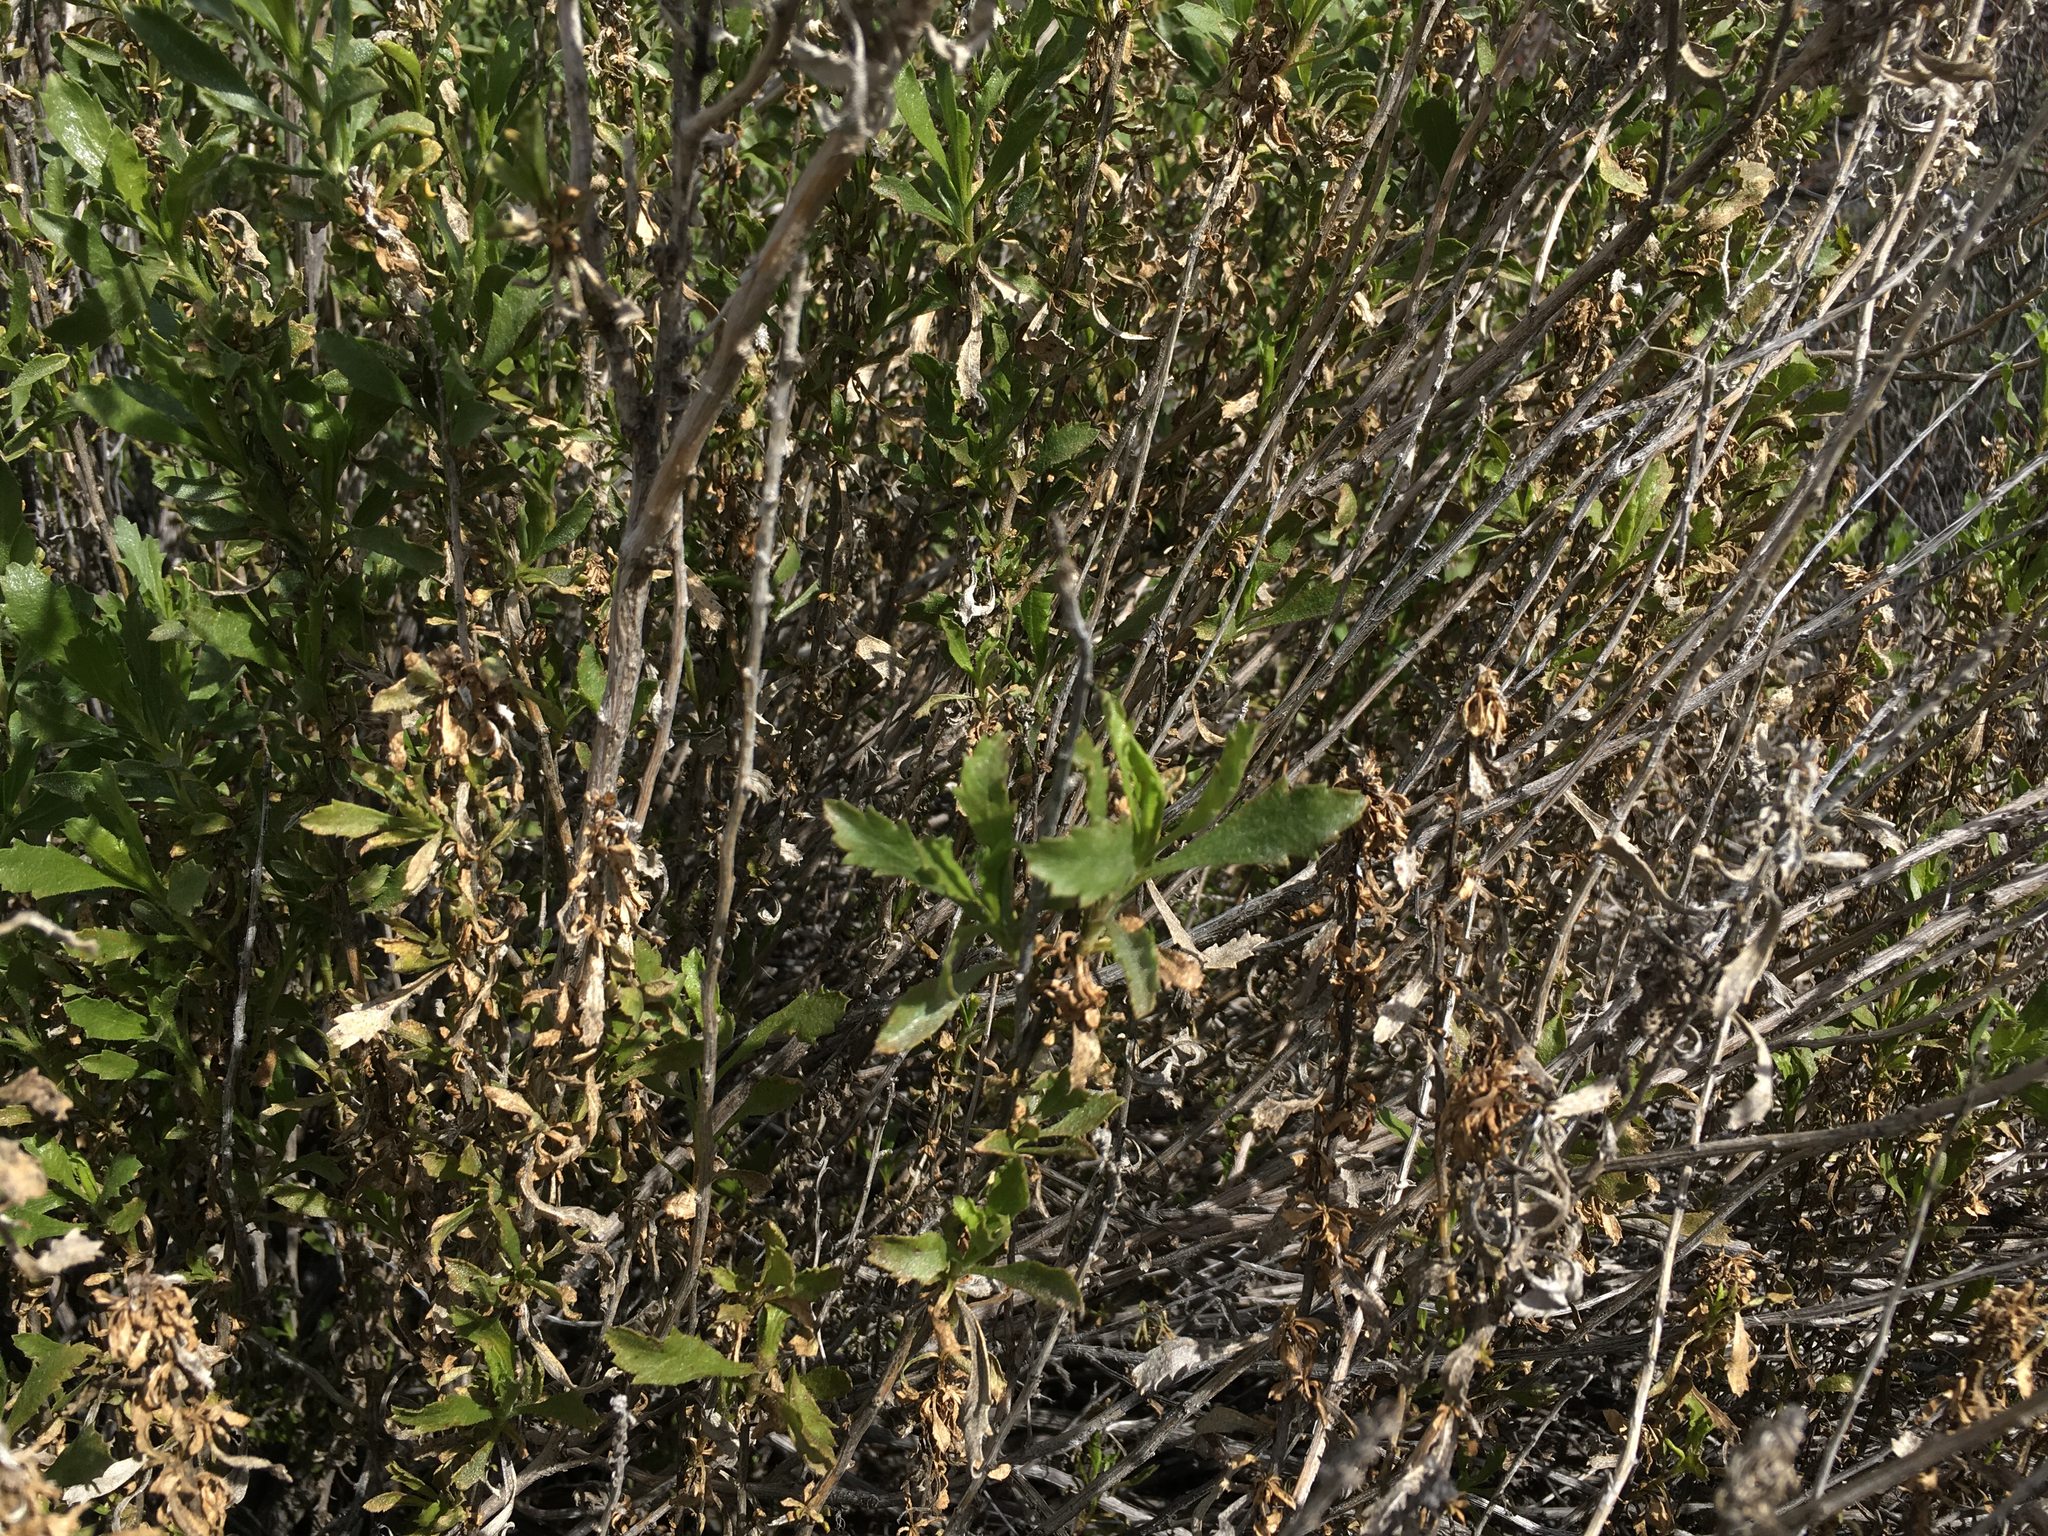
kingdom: Plantae
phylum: Tracheophyta
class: Magnoliopsida
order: Asterales
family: Asteraceae
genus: Isocoma
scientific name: Isocoma acradenia
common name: Alkali jimmyweed
